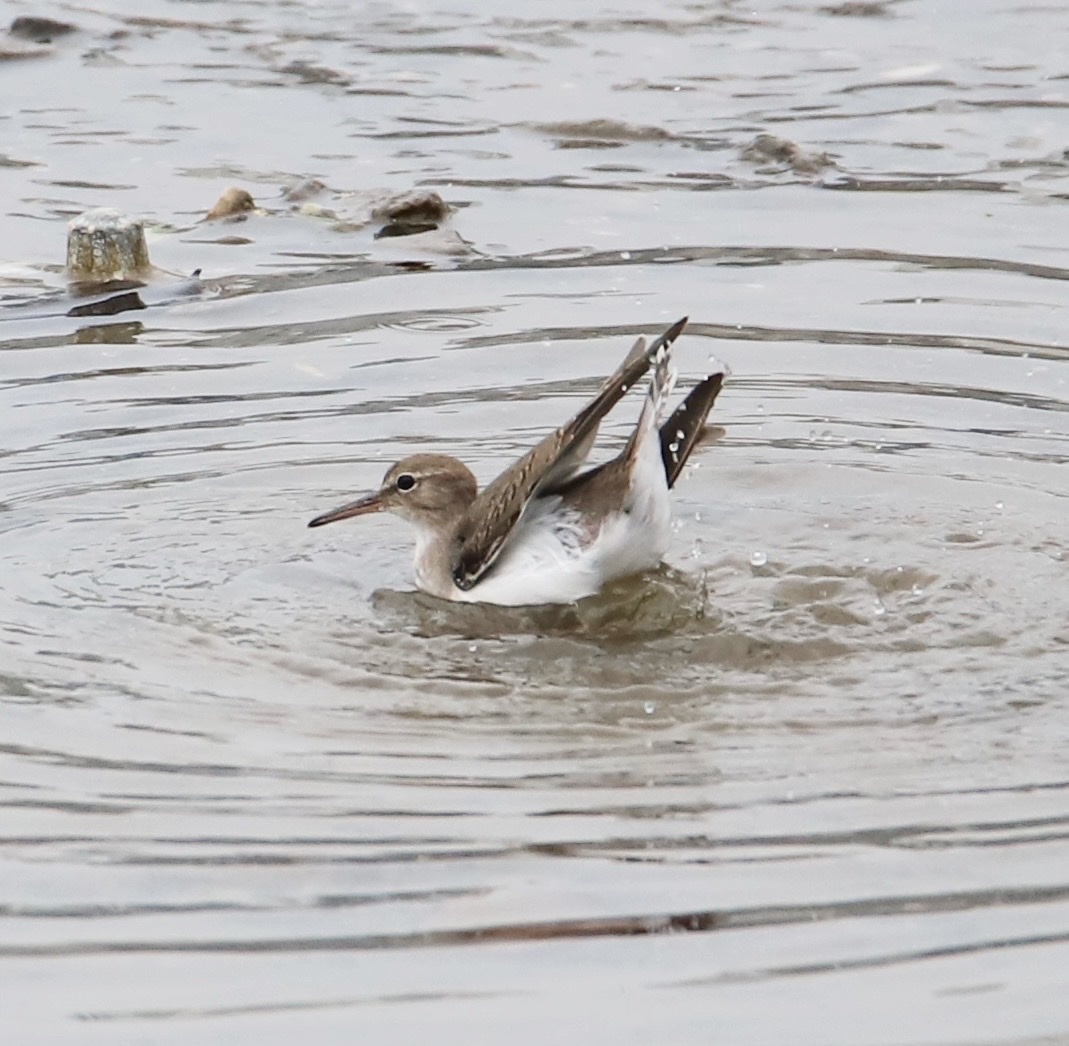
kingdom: Animalia
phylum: Chordata
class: Aves
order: Charadriiformes
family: Scolopacidae
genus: Actitis
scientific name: Actitis macularius
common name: Spotted sandpiper
